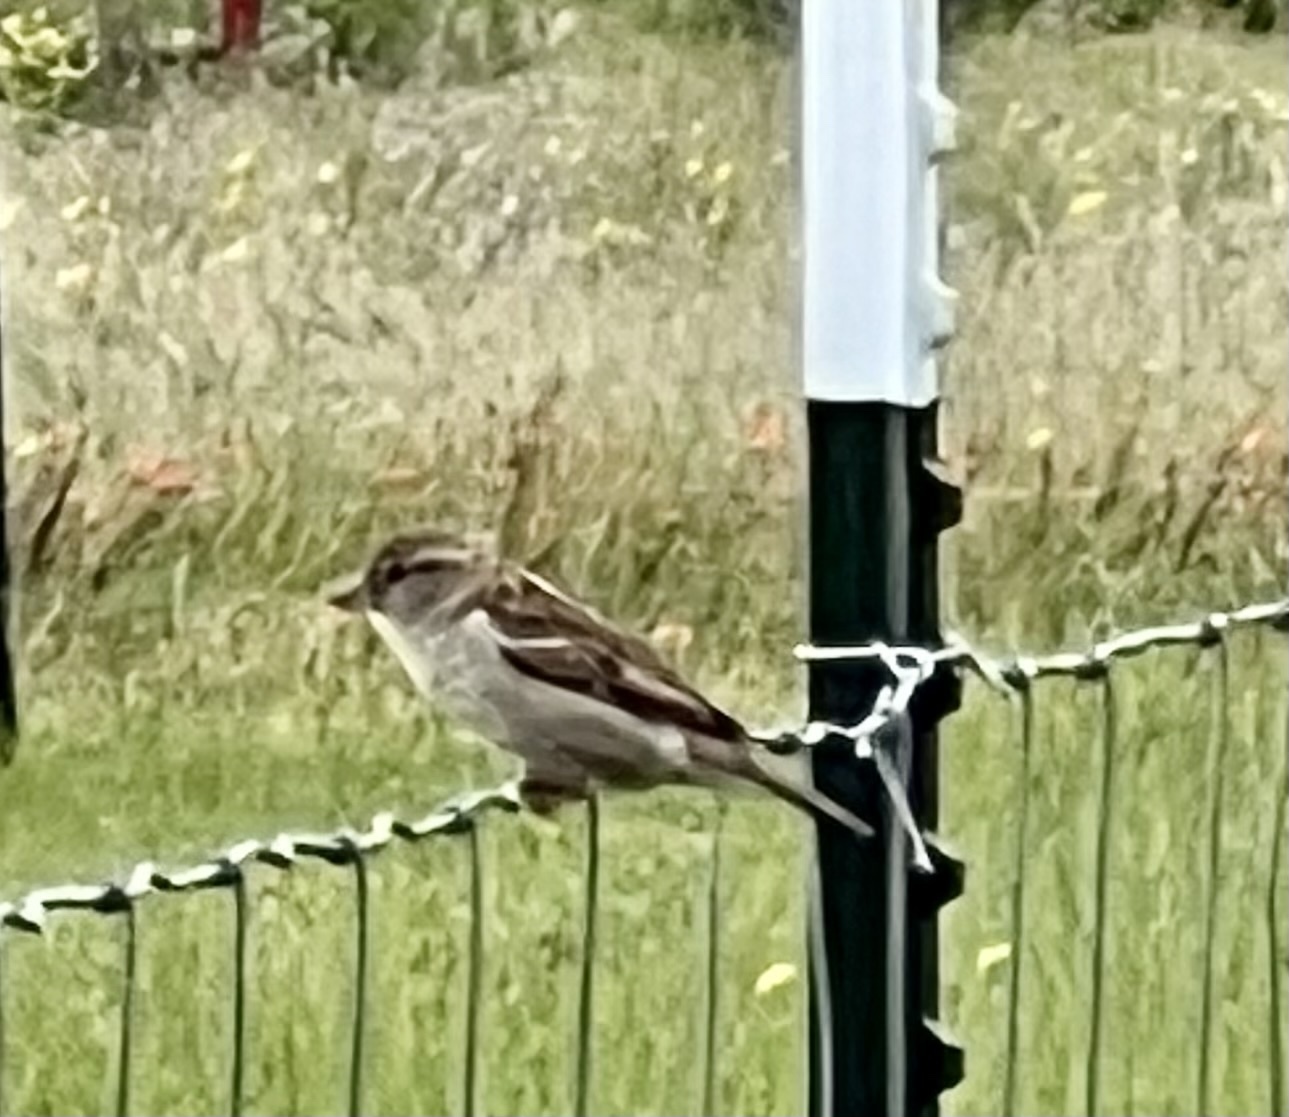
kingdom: Animalia
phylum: Chordata
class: Aves
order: Passeriformes
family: Passeridae
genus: Passer
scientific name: Passer domesticus
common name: House sparrow
